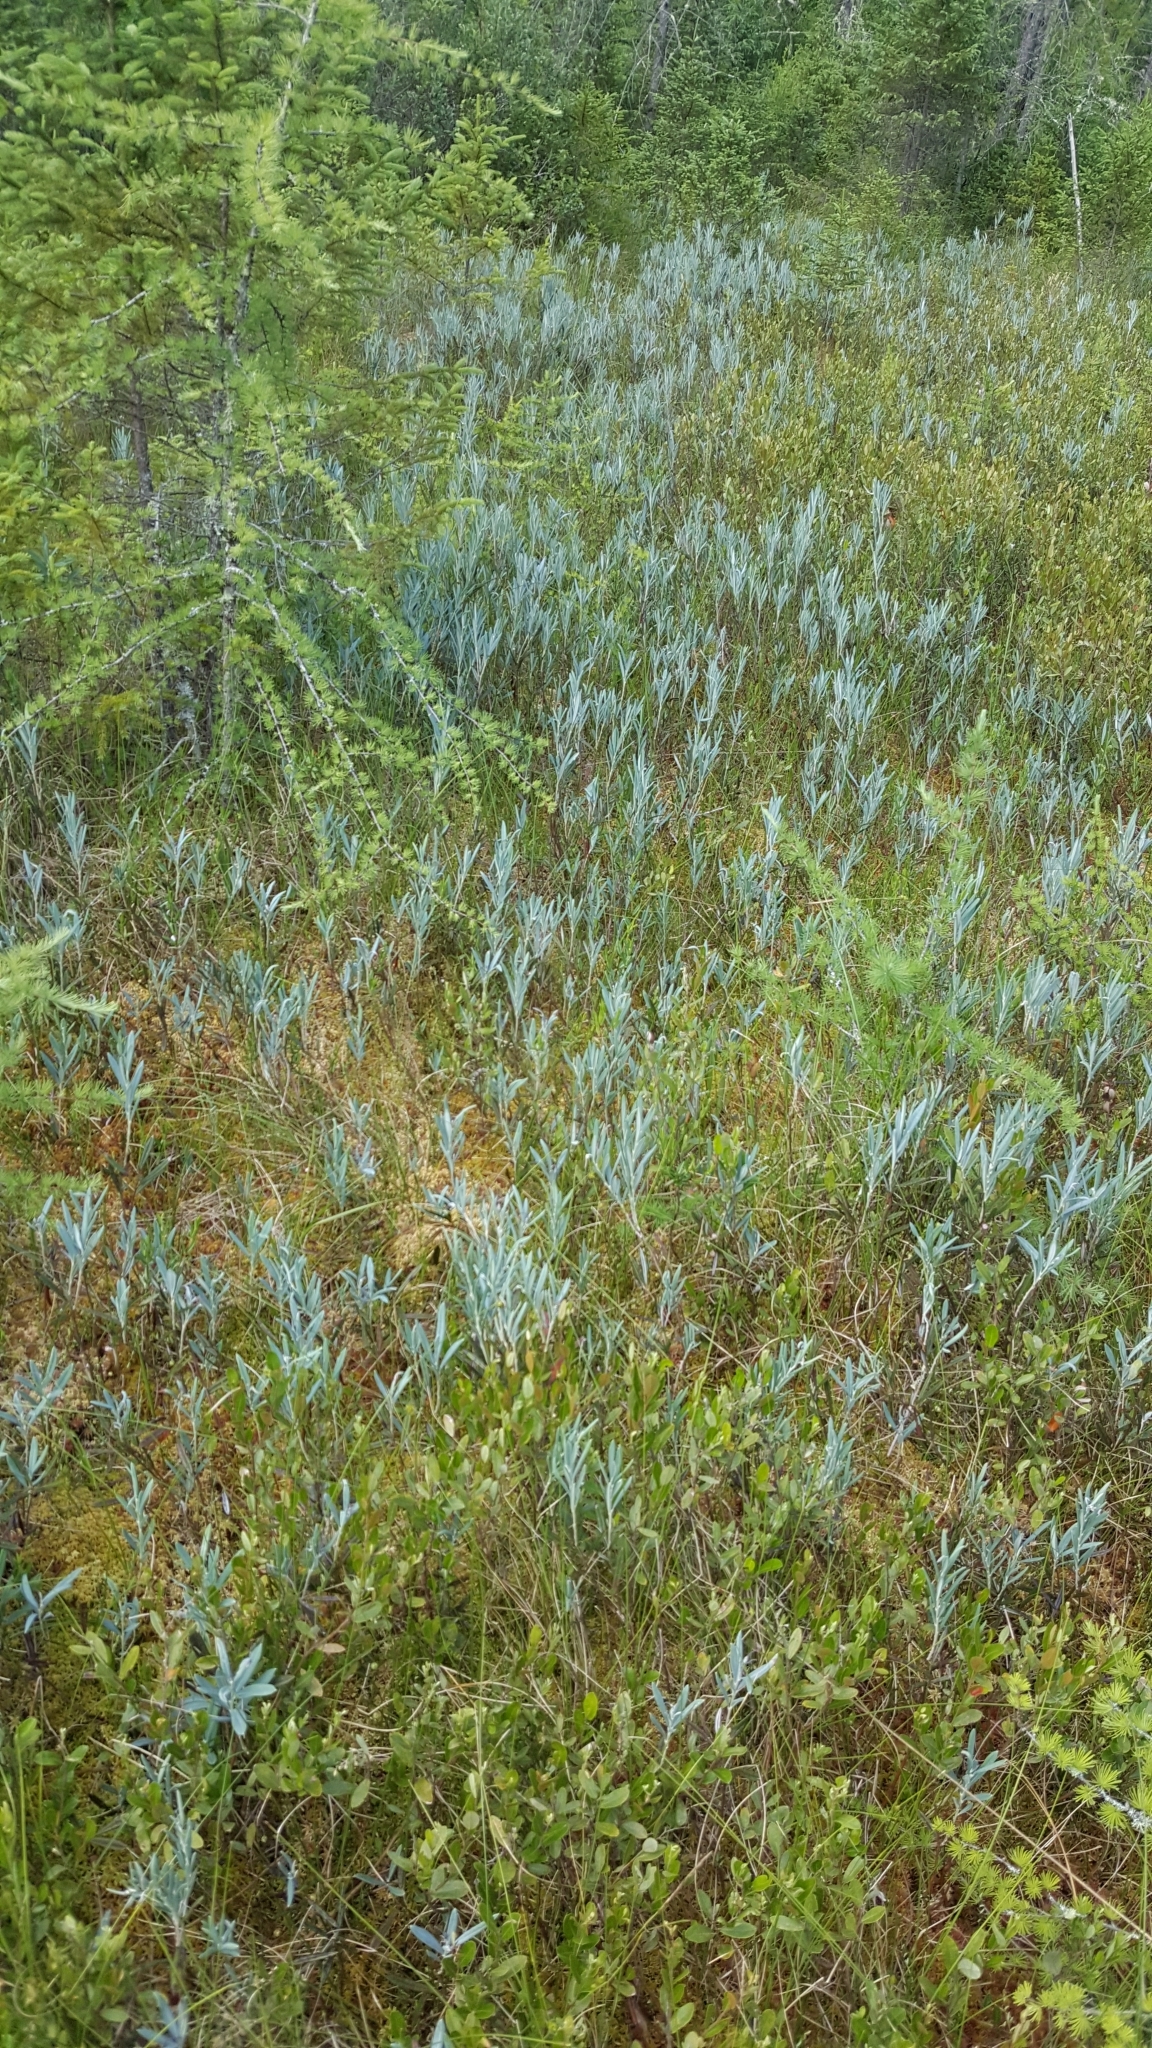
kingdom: Plantae
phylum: Tracheophyta
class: Magnoliopsida
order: Ericales
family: Ericaceae
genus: Andromeda
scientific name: Andromeda polifolia
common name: Bog-rosemary
